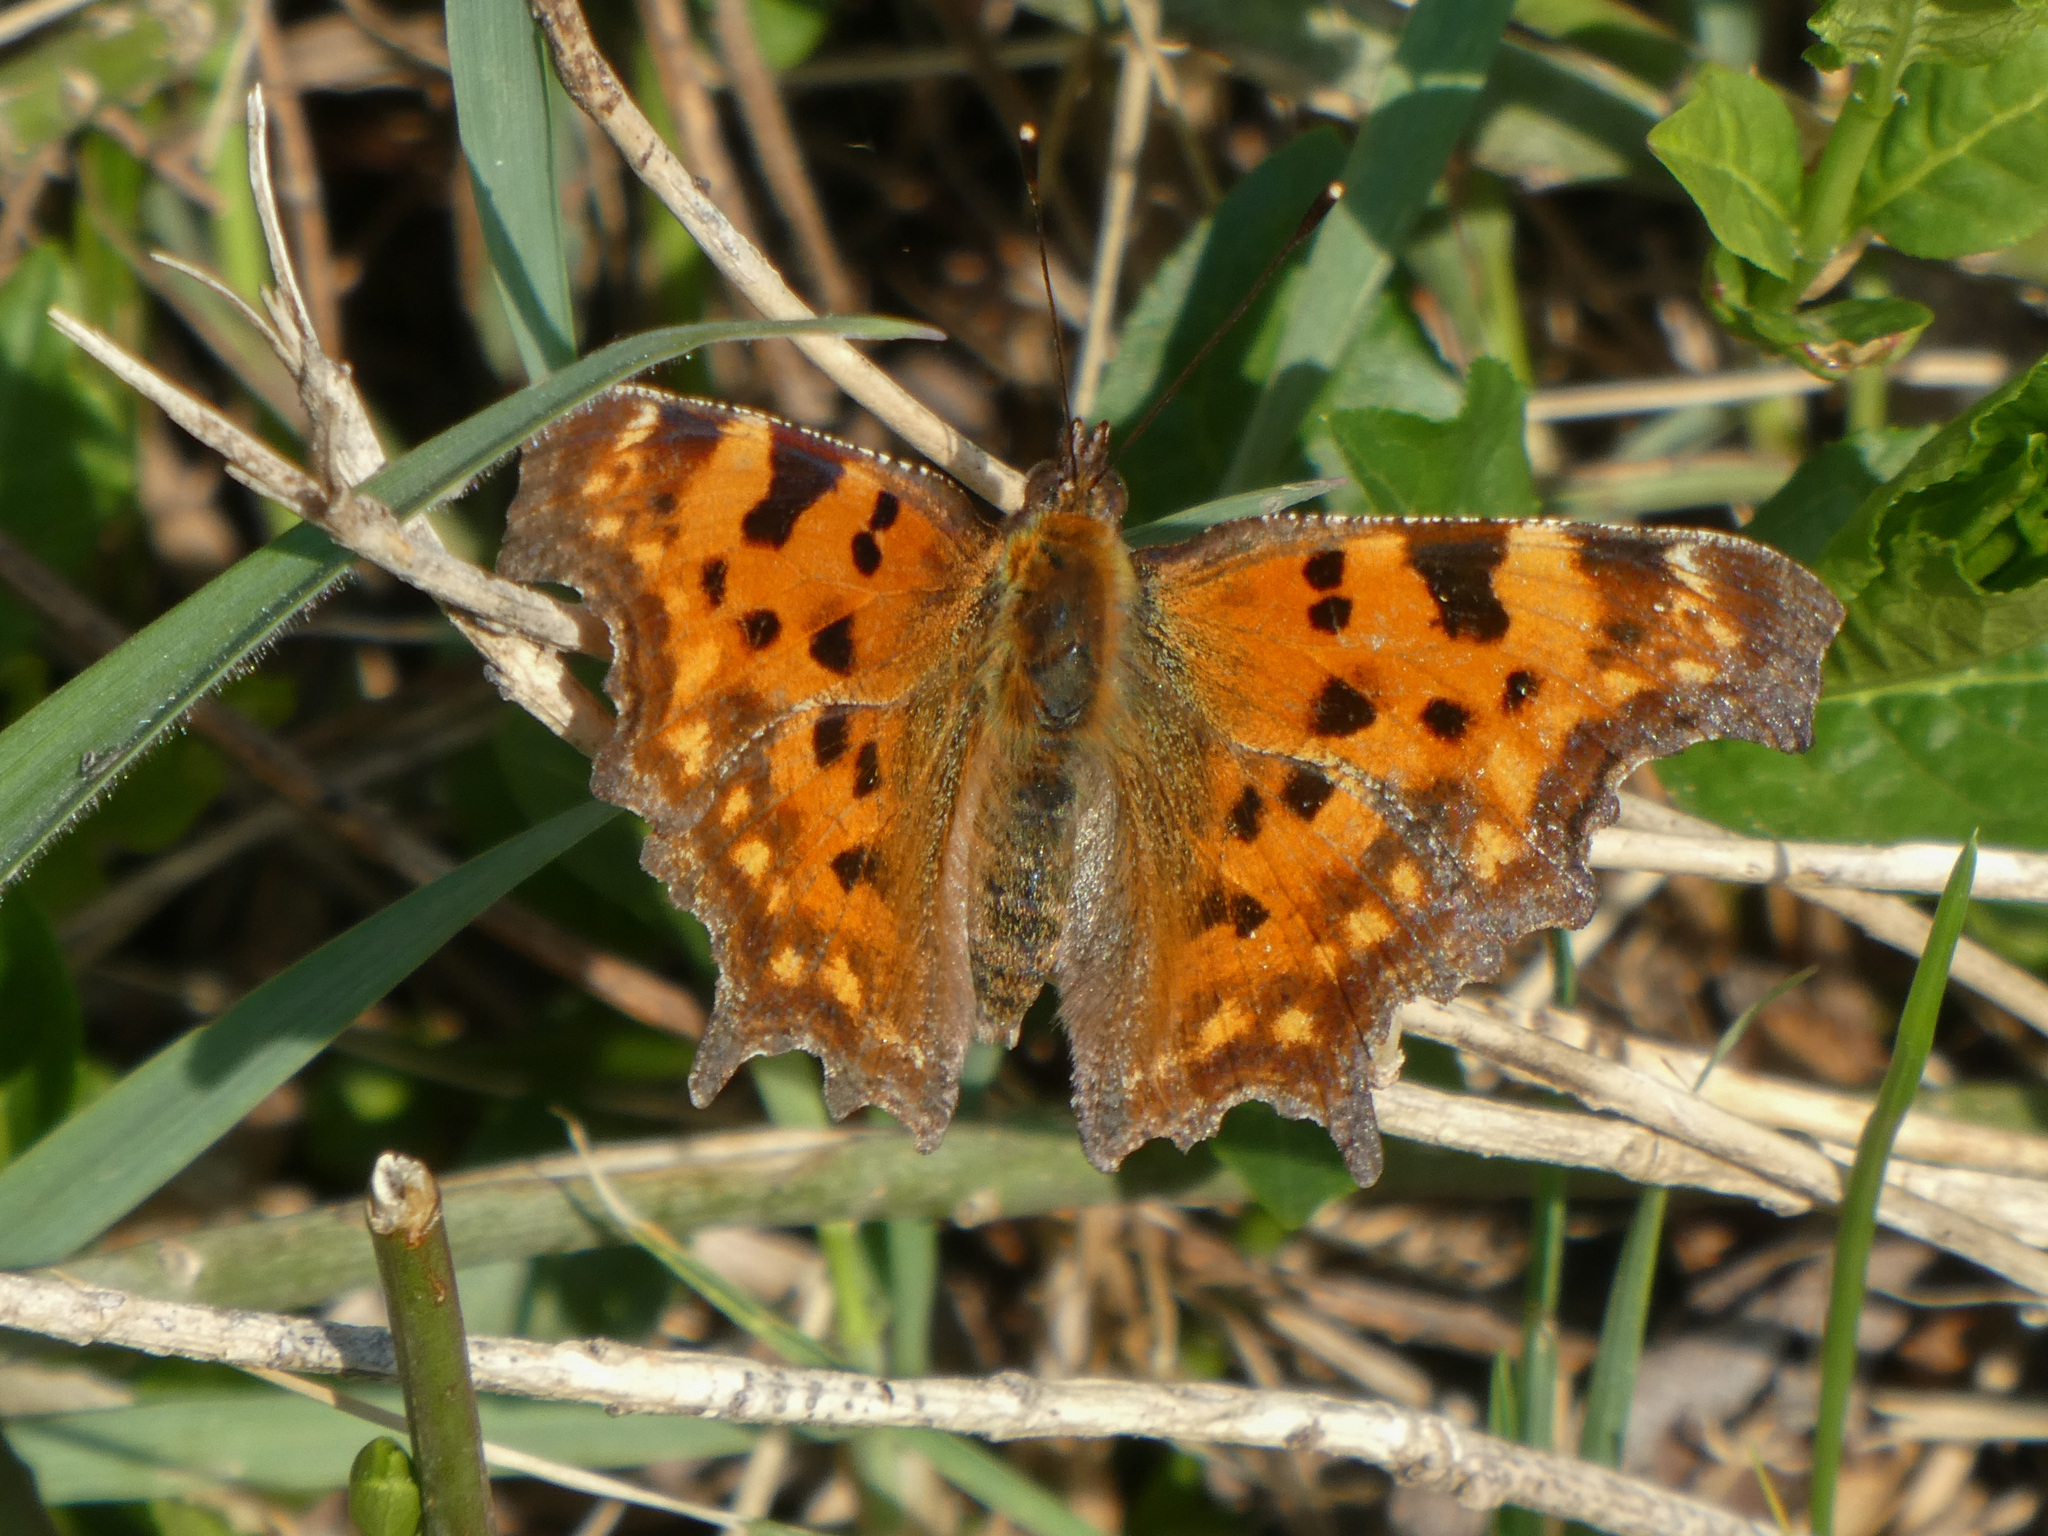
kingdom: Animalia
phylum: Arthropoda
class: Insecta
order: Lepidoptera
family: Nymphalidae
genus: Polygonia
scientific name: Polygonia c-album
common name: Comma
